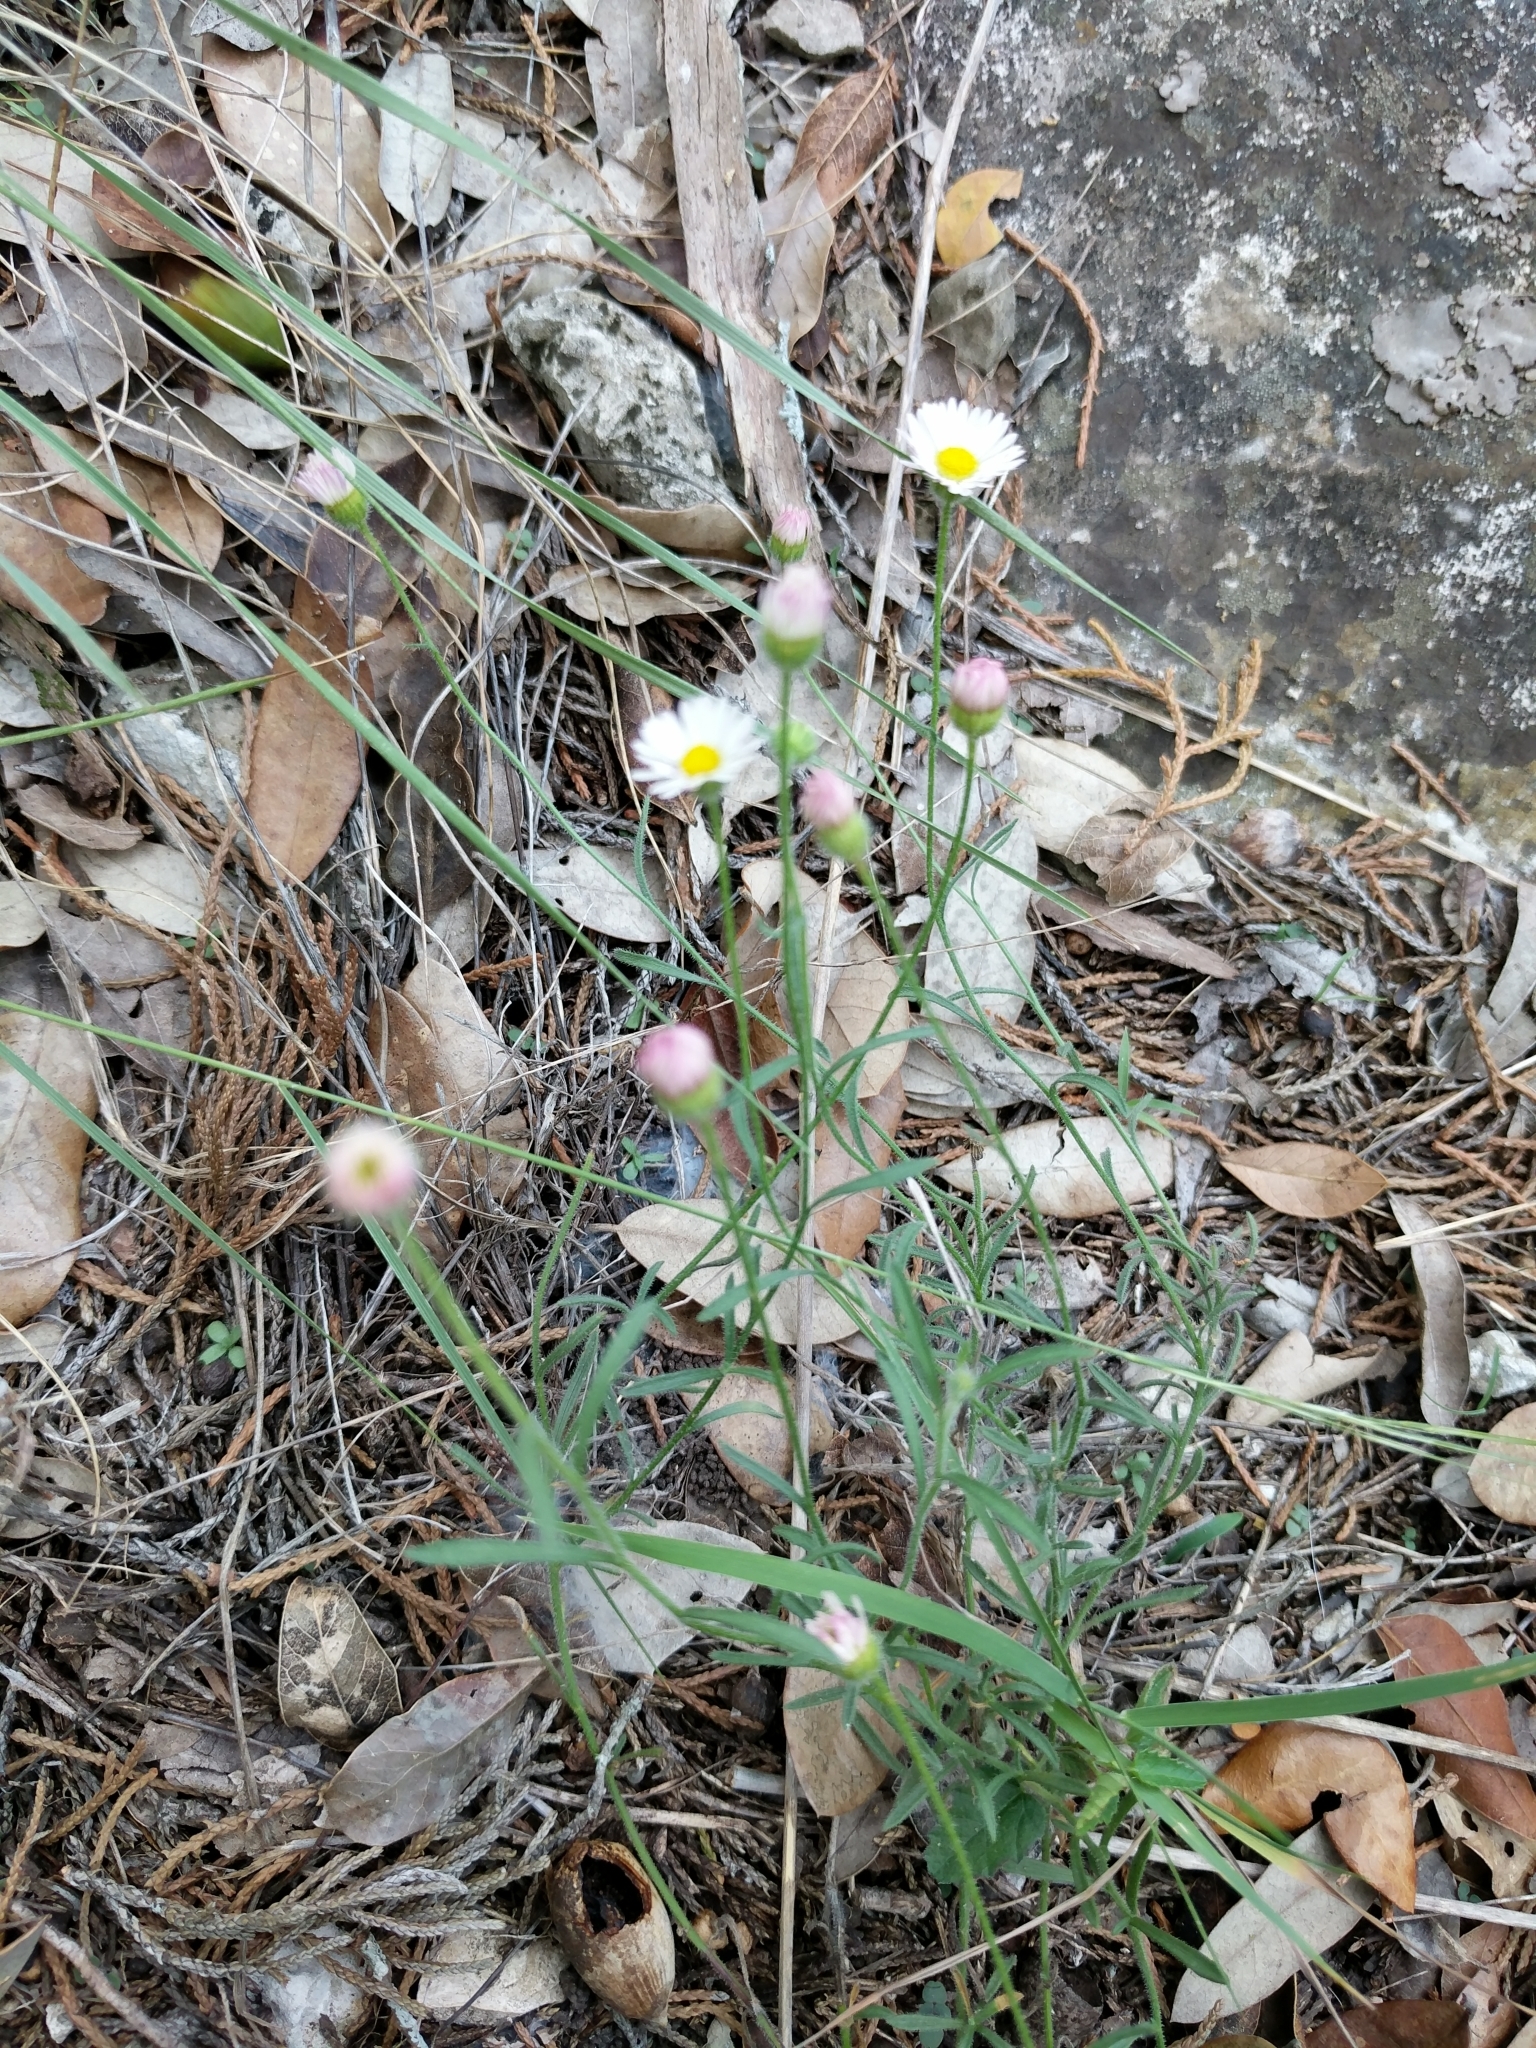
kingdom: Plantae
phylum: Tracheophyta
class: Magnoliopsida
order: Asterales
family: Asteraceae
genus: Erigeron
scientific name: Erigeron modestus
